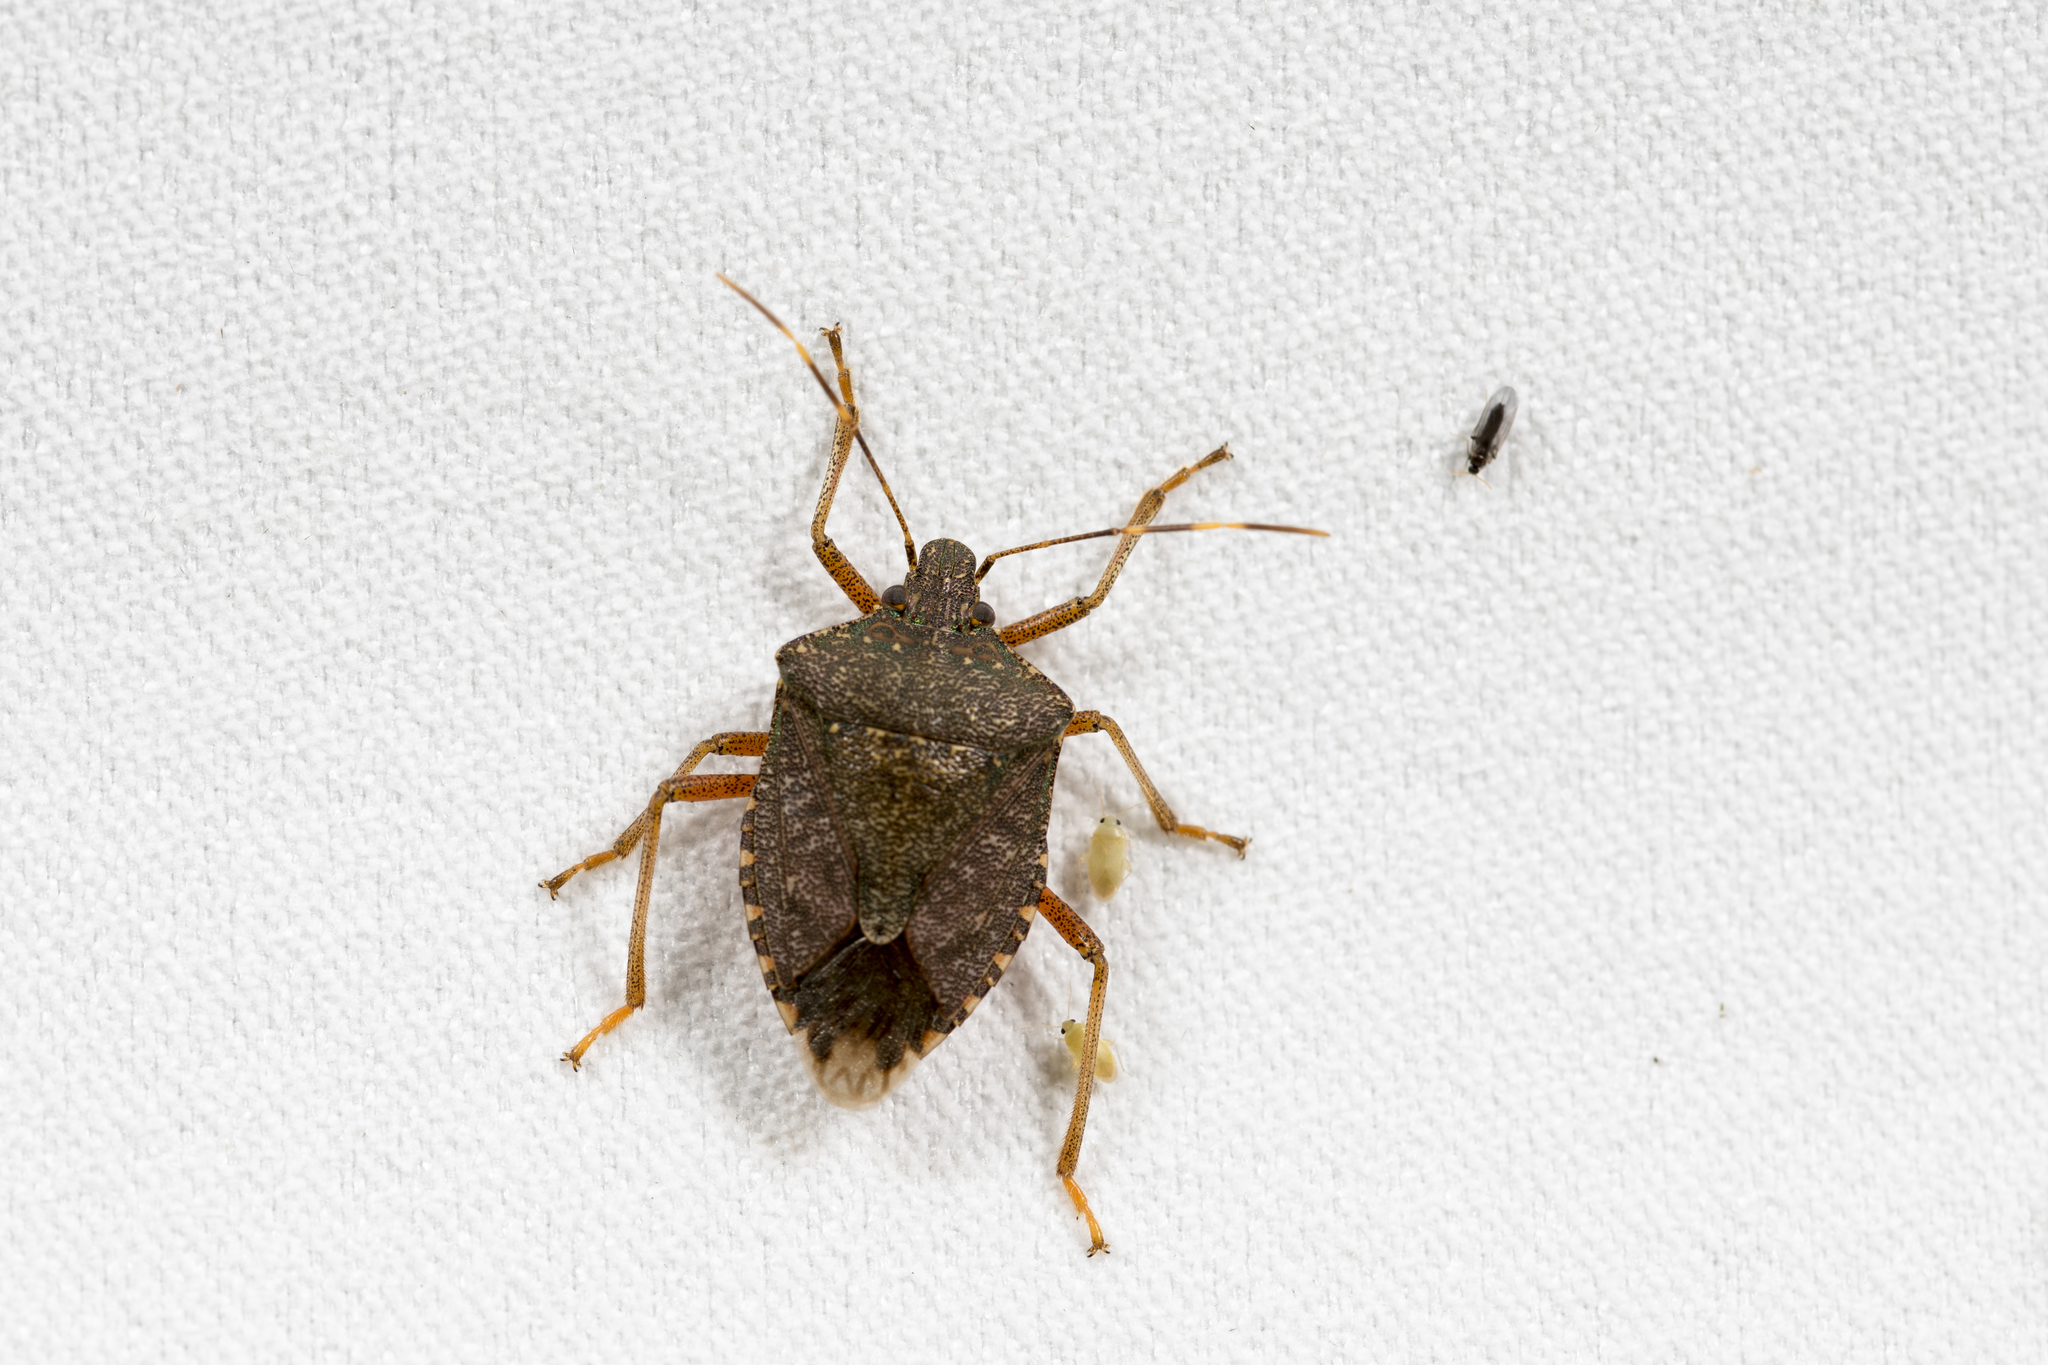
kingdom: Animalia
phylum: Arthropoda
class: Insecta
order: Hemiptera
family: Pentatomidae
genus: Halyomorpha
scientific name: Halyomorpha halys
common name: Brown marmorated stink bug
